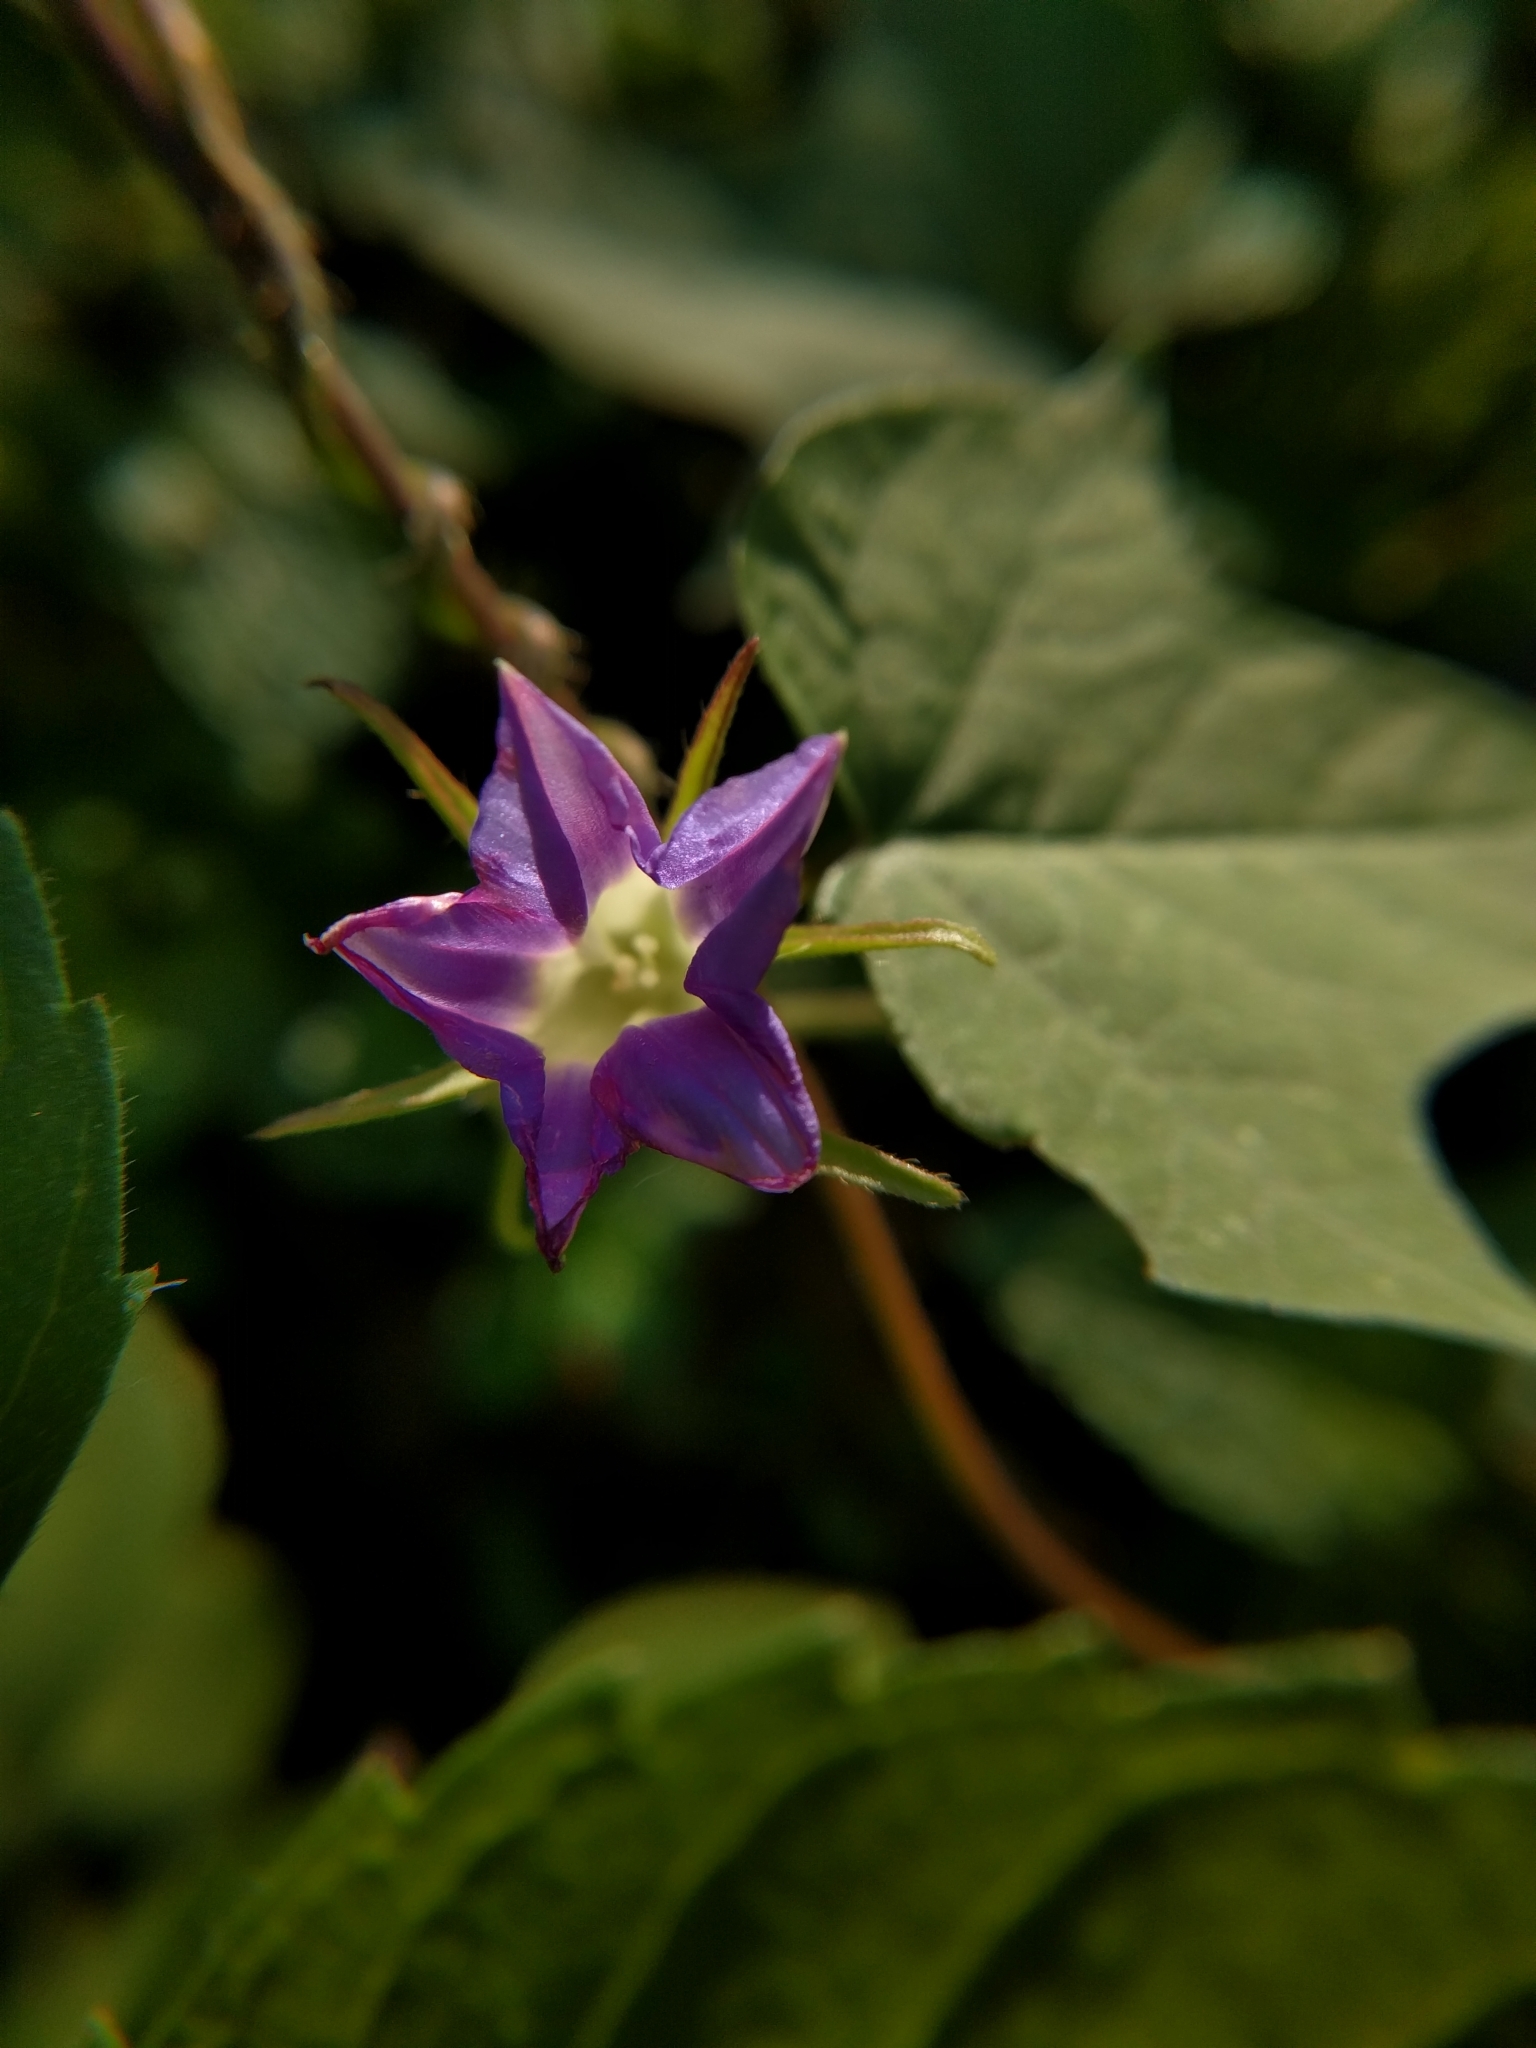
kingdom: Plantae
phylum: Tracheophyta
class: Magnoliopsida
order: Solanales
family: Convolvulaceae
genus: Ipomoea
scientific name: Ipomoea hederacea
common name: Ivy-leaved morning-glory
